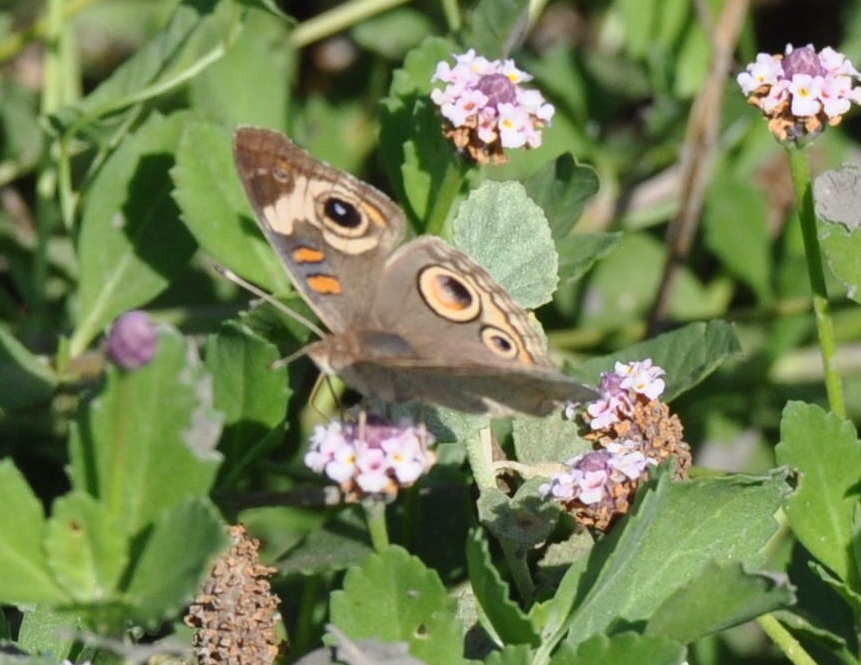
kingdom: Animalia
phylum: Arthropoda
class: Insecta
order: Lepidoptera
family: Nymphalidae
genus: Junonia
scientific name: Junonia grisea
